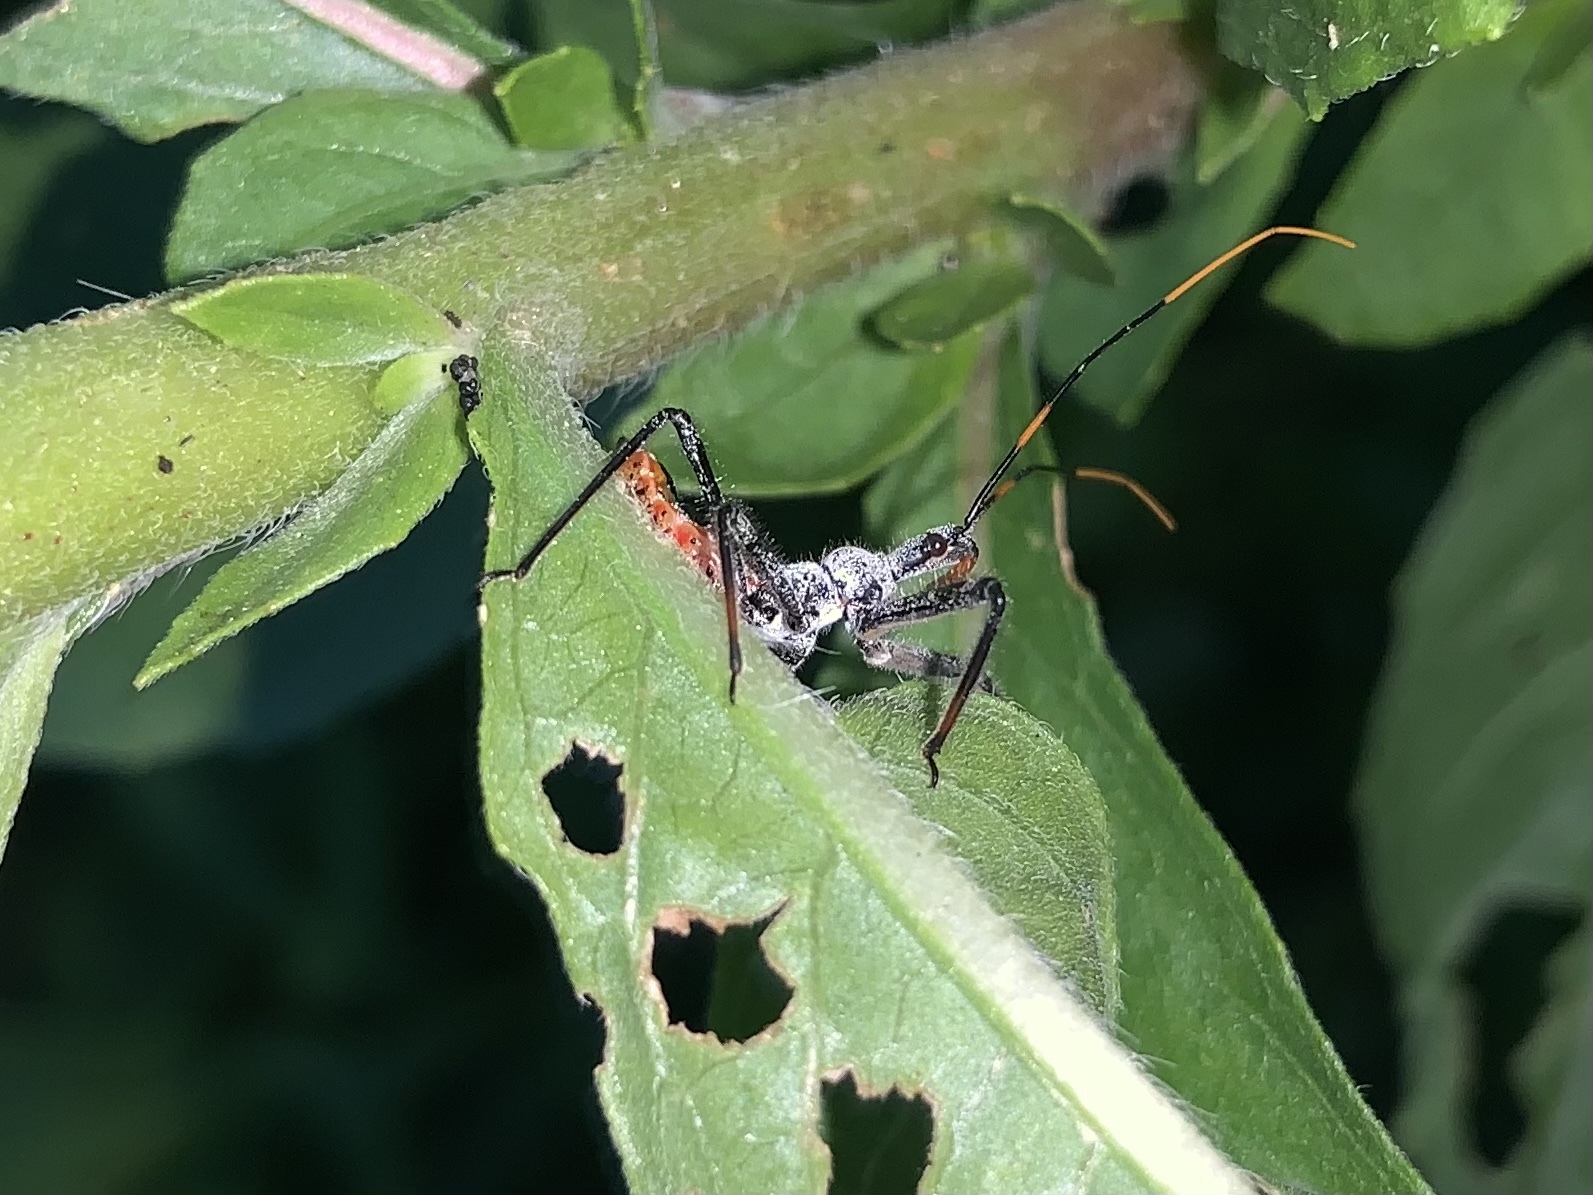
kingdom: Animalia
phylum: Arthropoda
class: Insecta
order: Hemiptera
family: Reduviidae
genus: Arilus
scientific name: Arilus cristatus
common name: North american wheel bug
